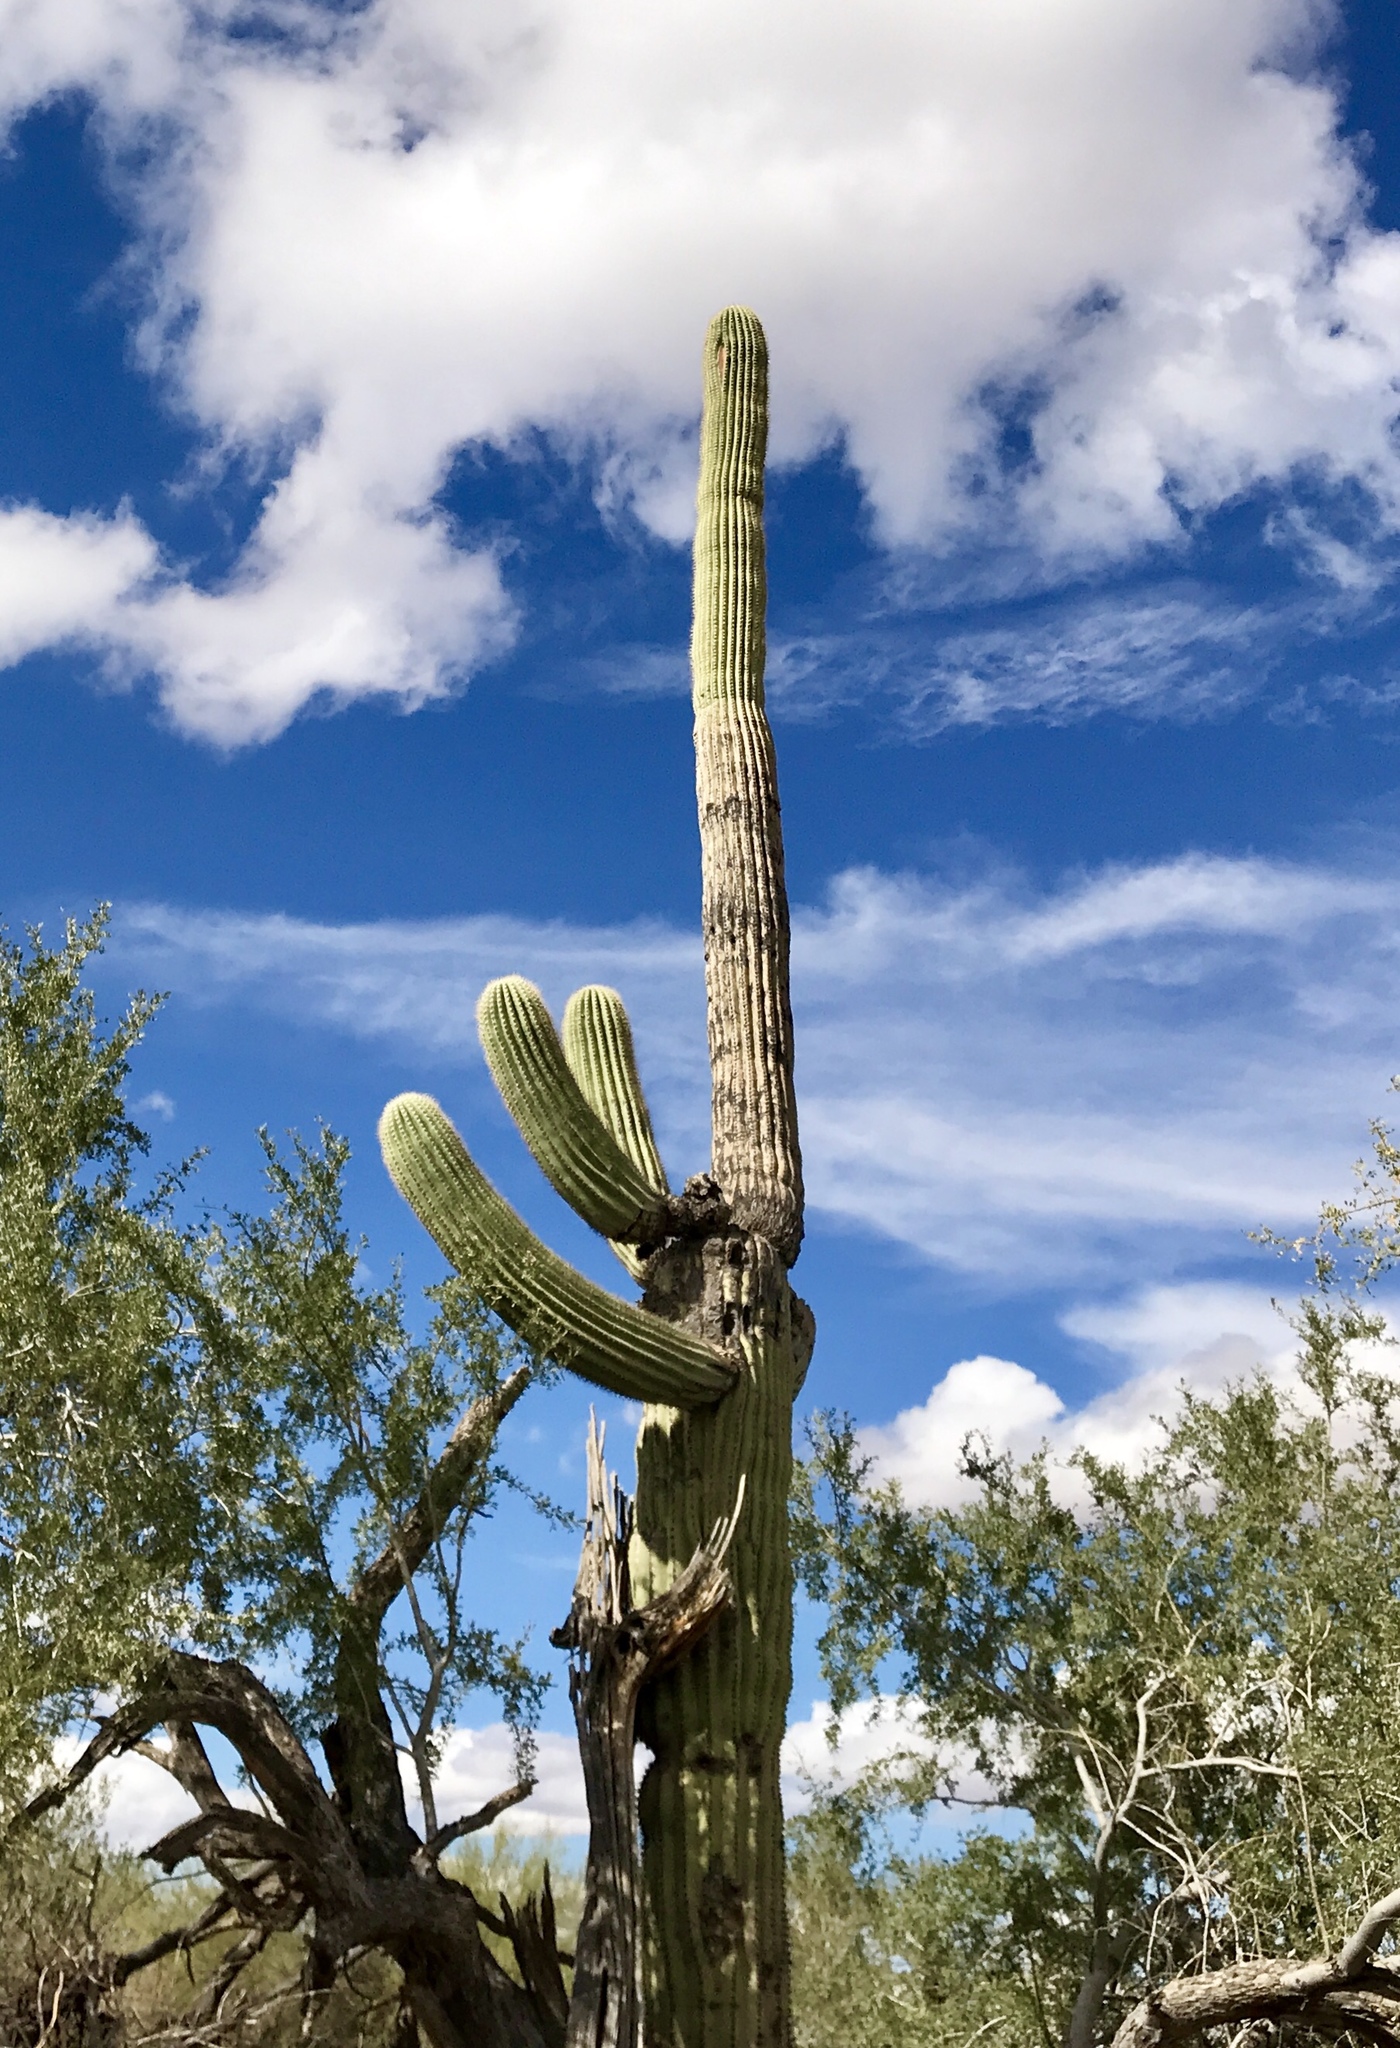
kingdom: Plantae
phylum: Tracheophyta
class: Magnoliopsida
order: Caryophyllales
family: Cactaceae
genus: Carnegiea
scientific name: Carnegiea gigantea
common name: Saguaro
